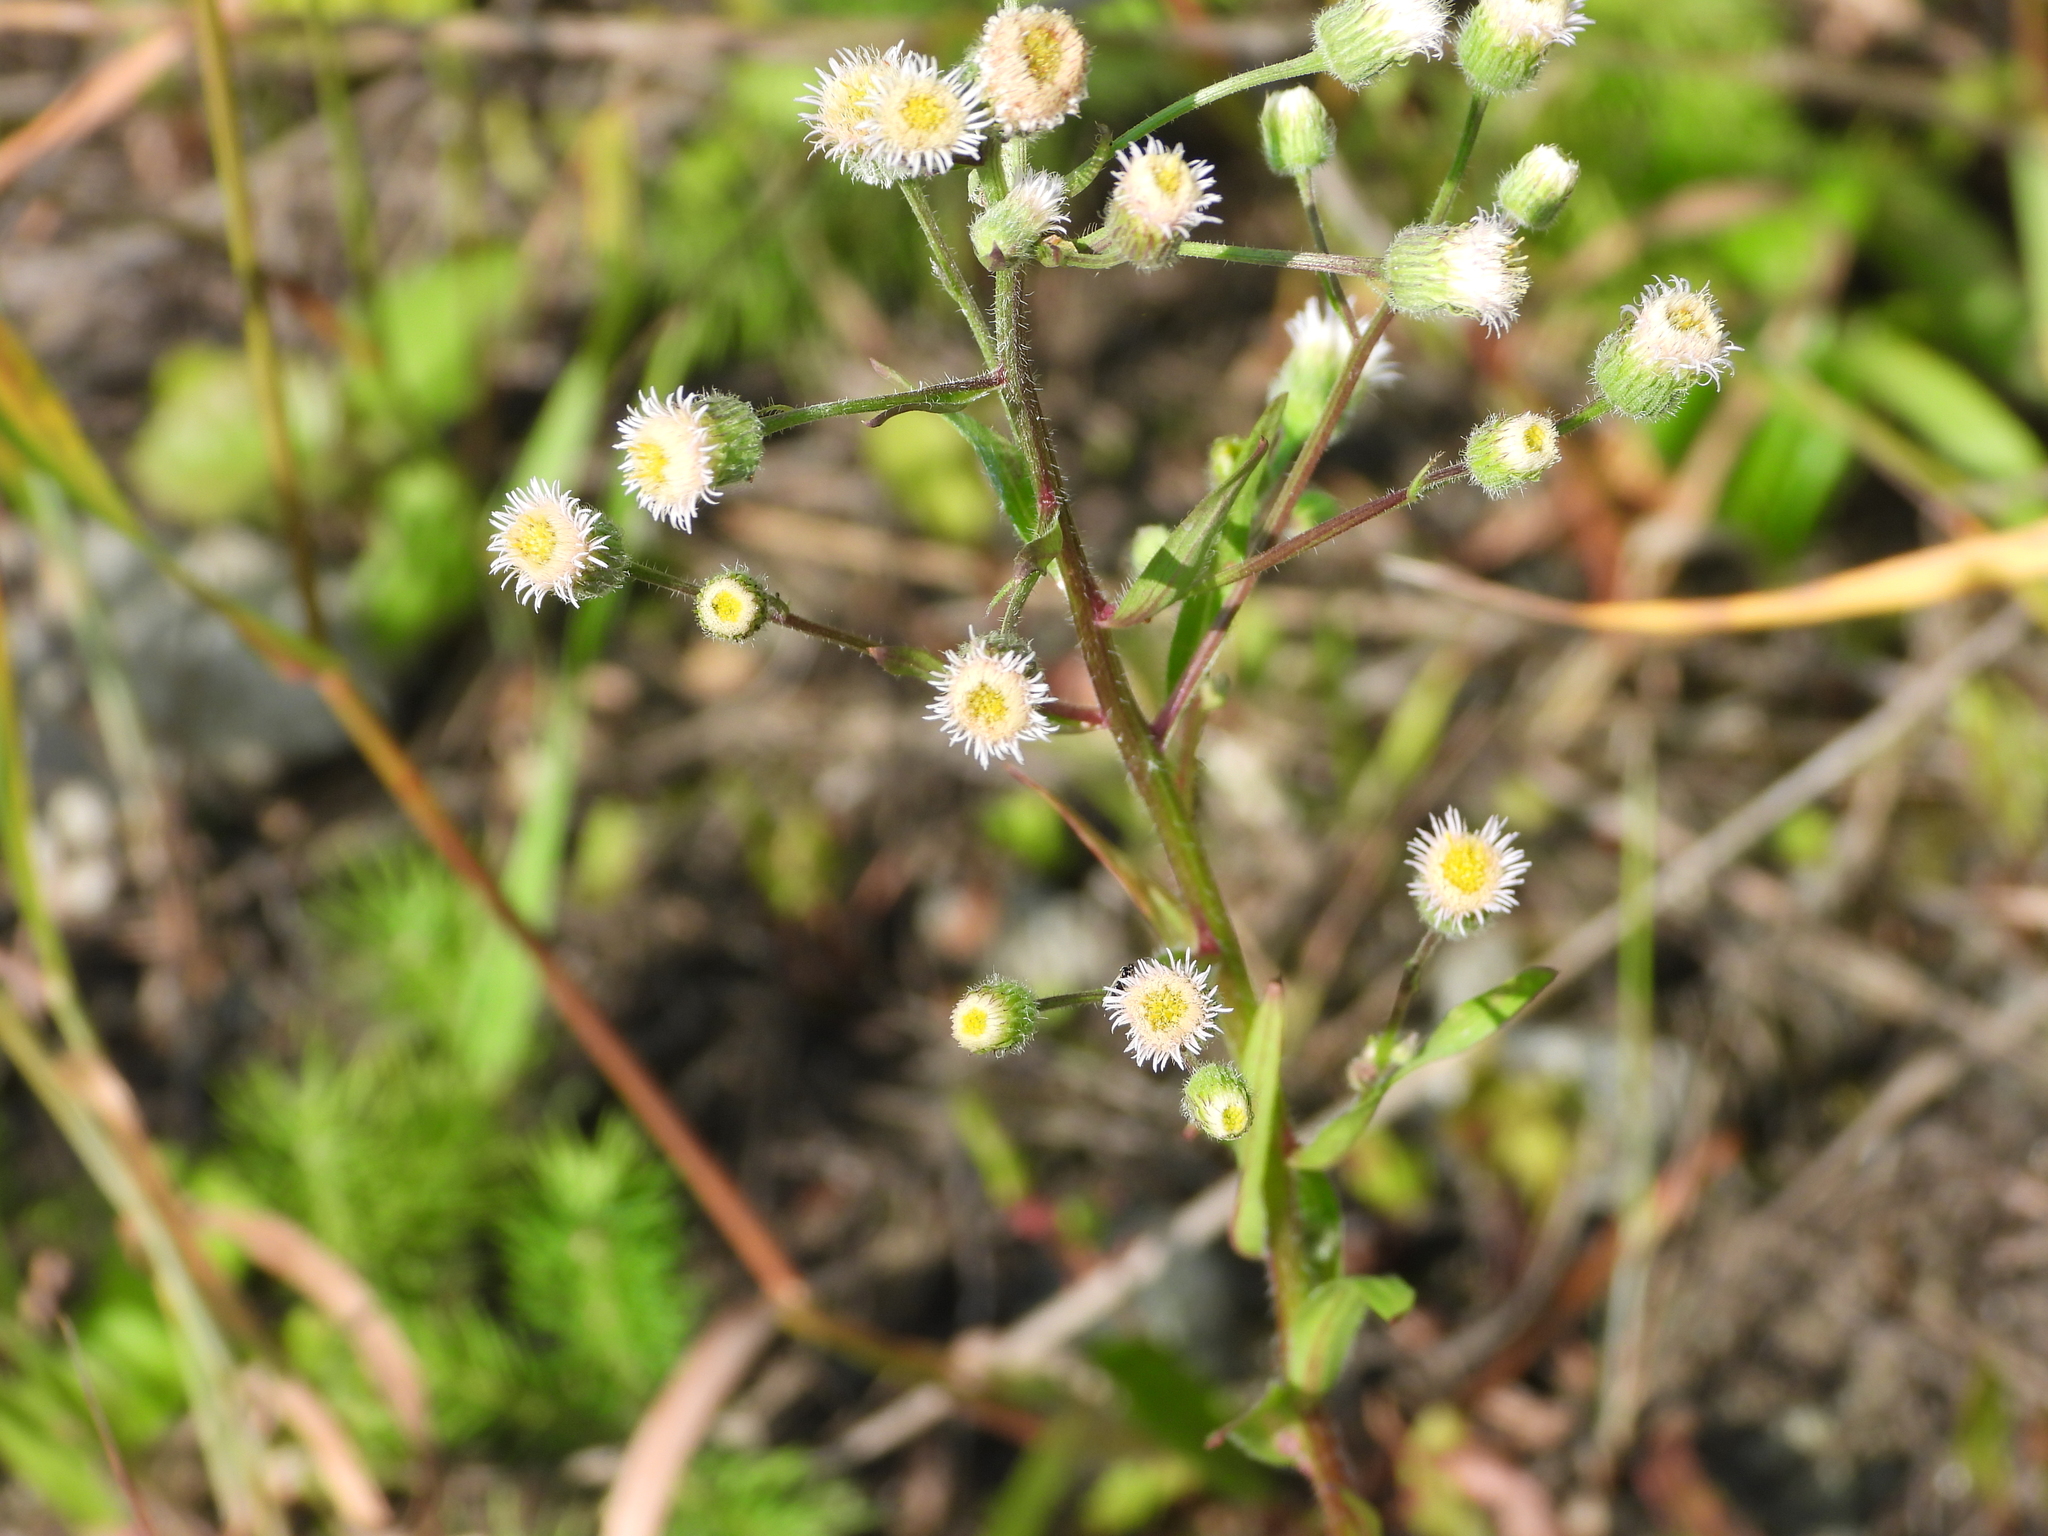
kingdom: Plantae
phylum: Tracheophyta
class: Magnoliopsida
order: Asterales
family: Asteraceae
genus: Erigeron
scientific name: Erigeron acris
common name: Blue fleabane
